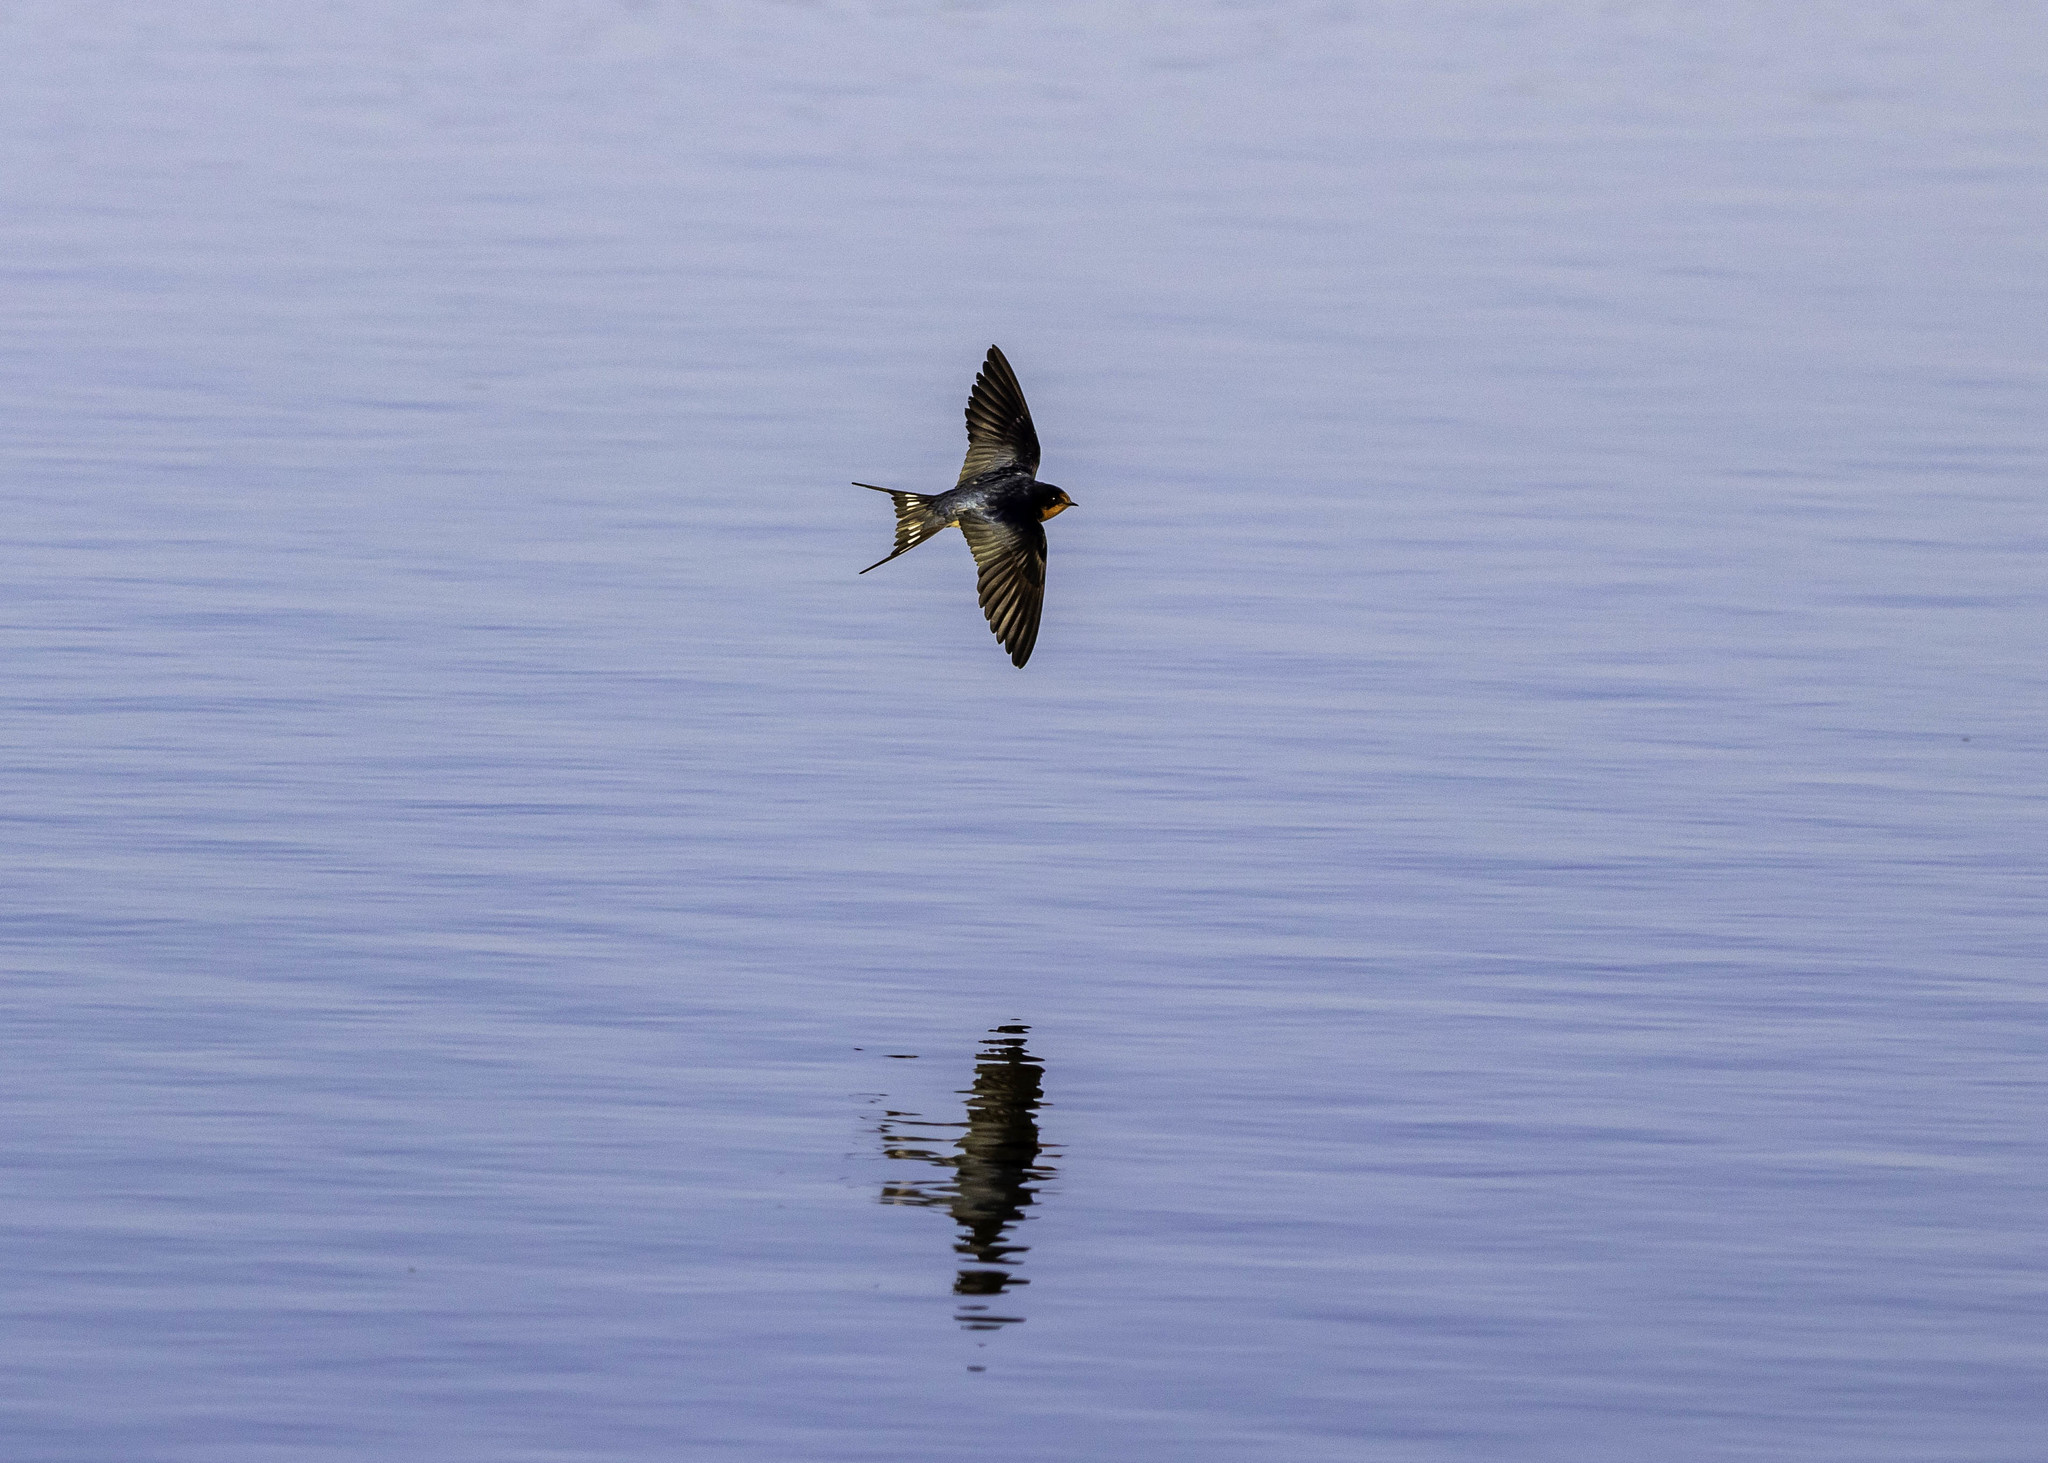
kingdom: Animalia
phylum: Chordata
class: Aves
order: Passeriformes
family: Hirundinidae
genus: Hirundo
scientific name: Hirundo rustica
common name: Barn swallow
